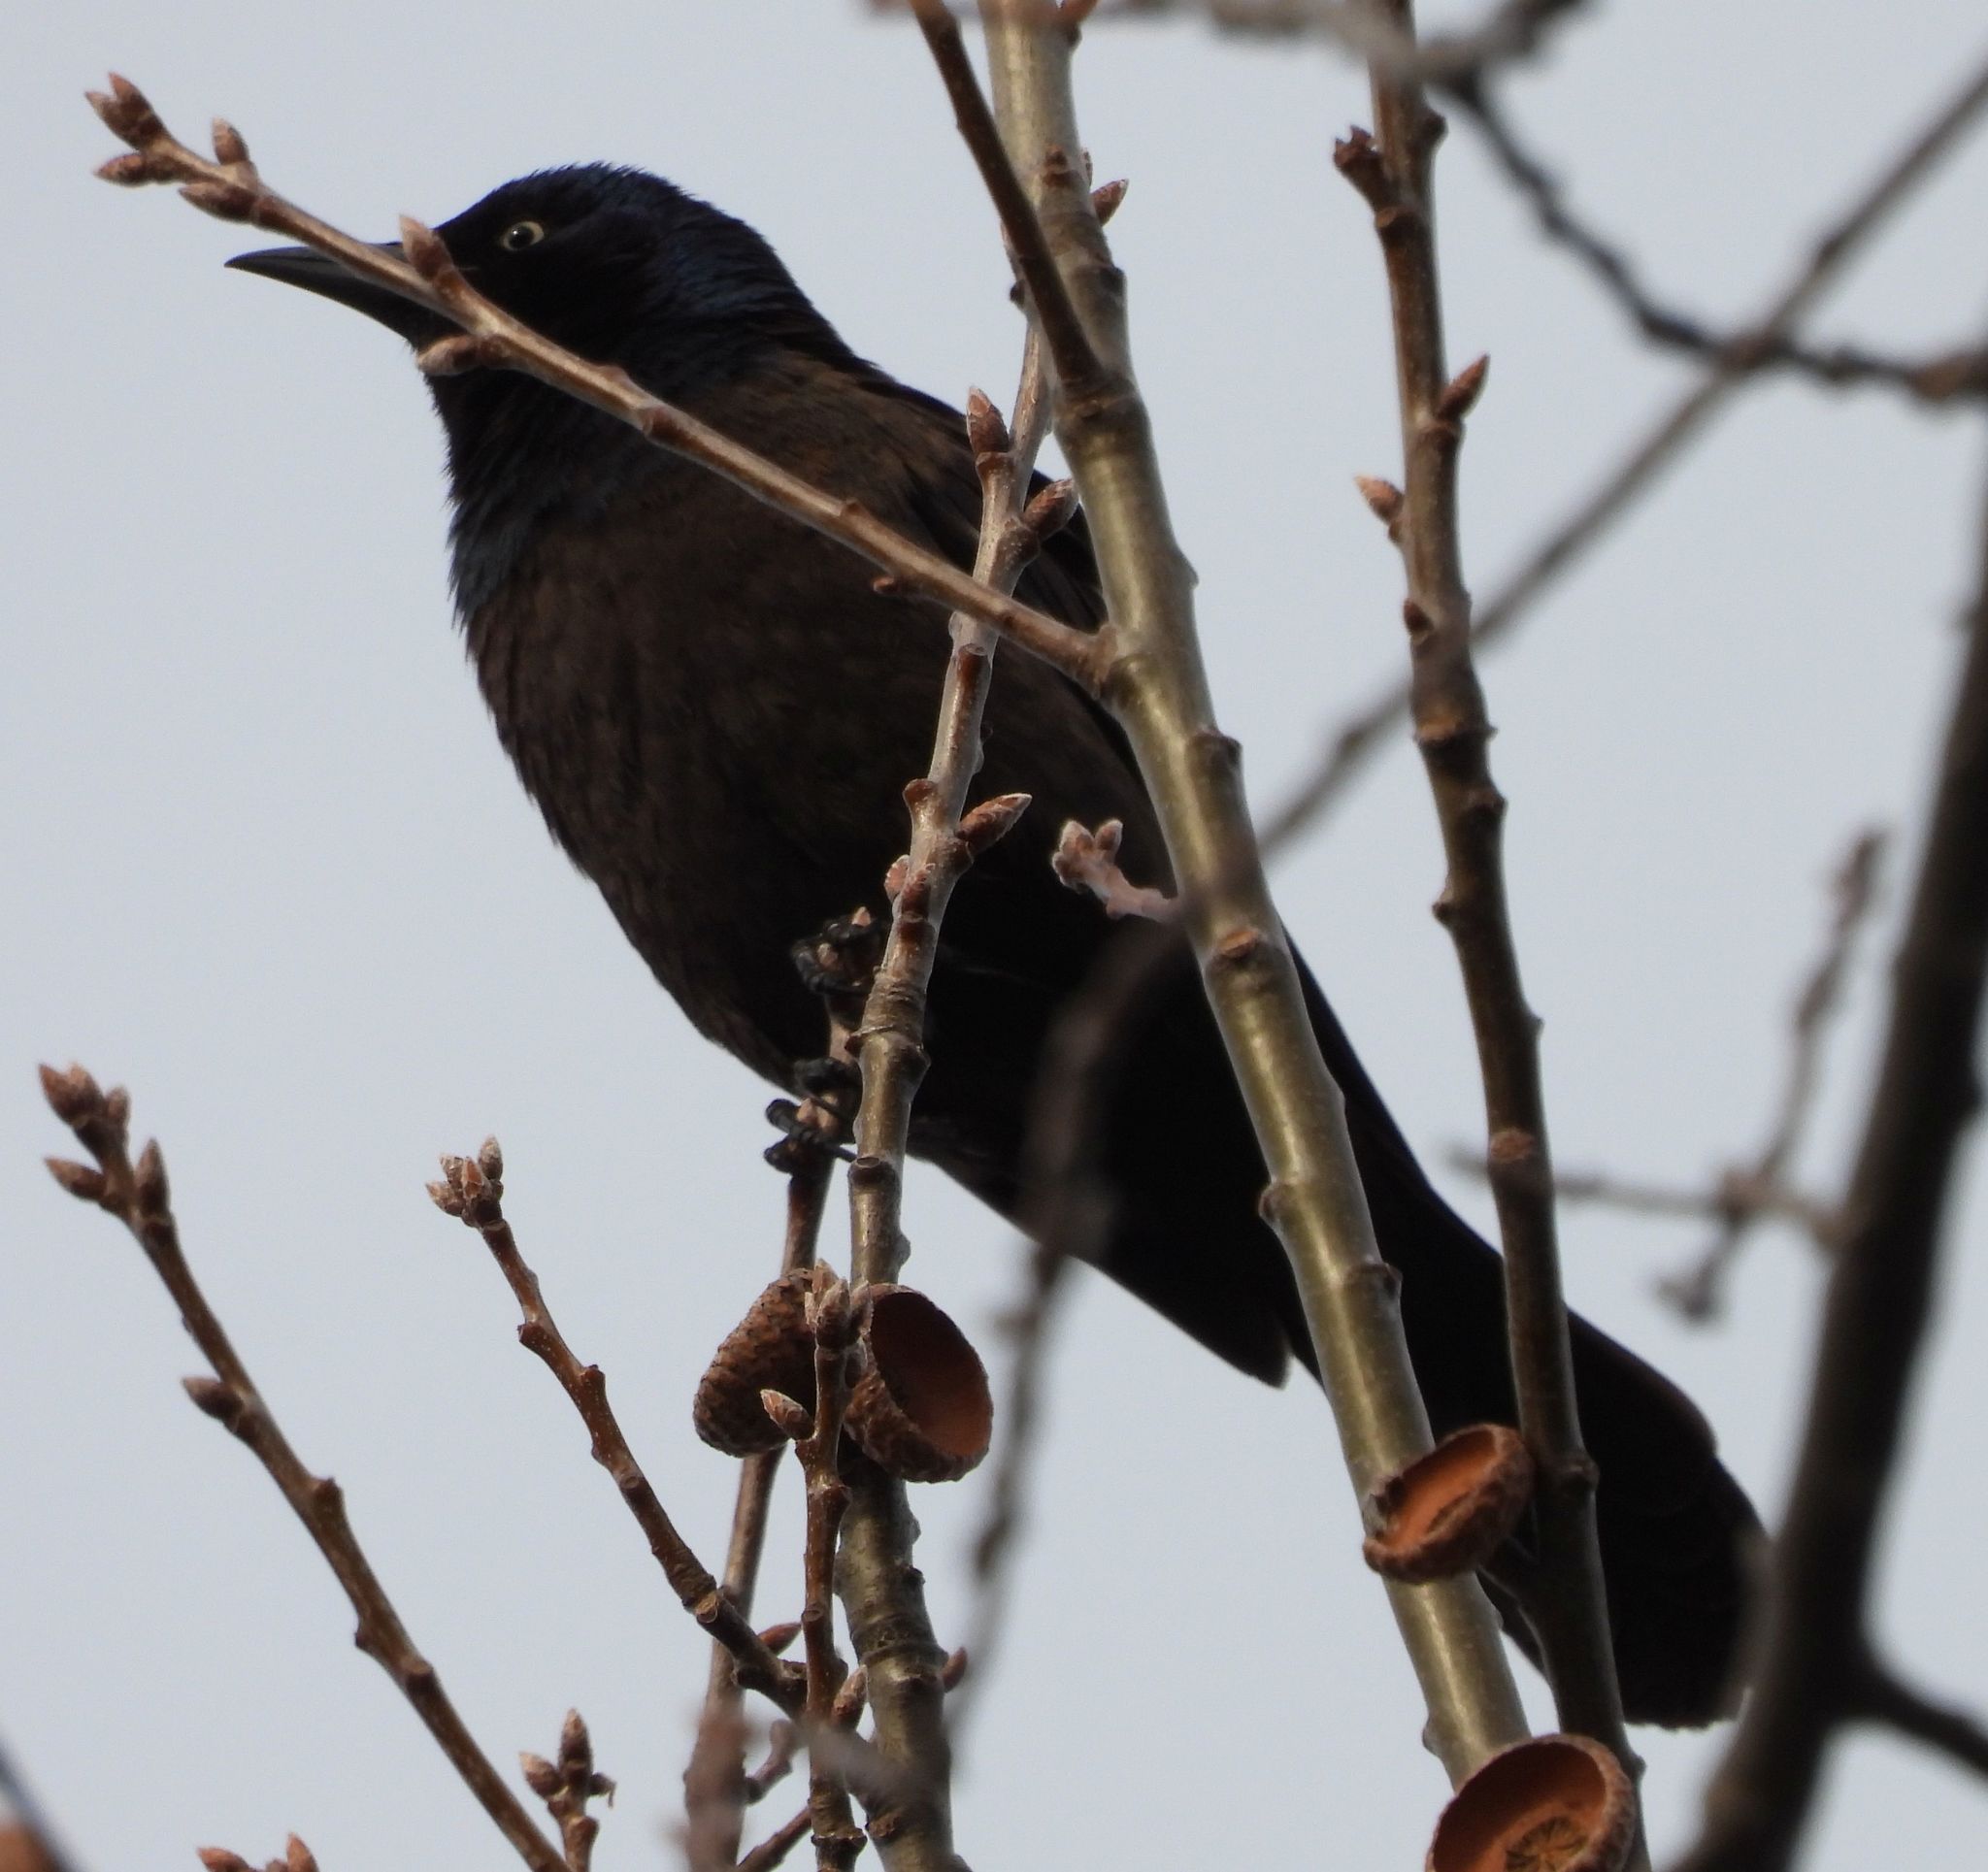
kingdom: Animalia
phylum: Chordata
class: Aves
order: Passeriformes
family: Icteridae
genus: Quiscalus
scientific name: Quiscalus quiscula
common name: Common grackle
